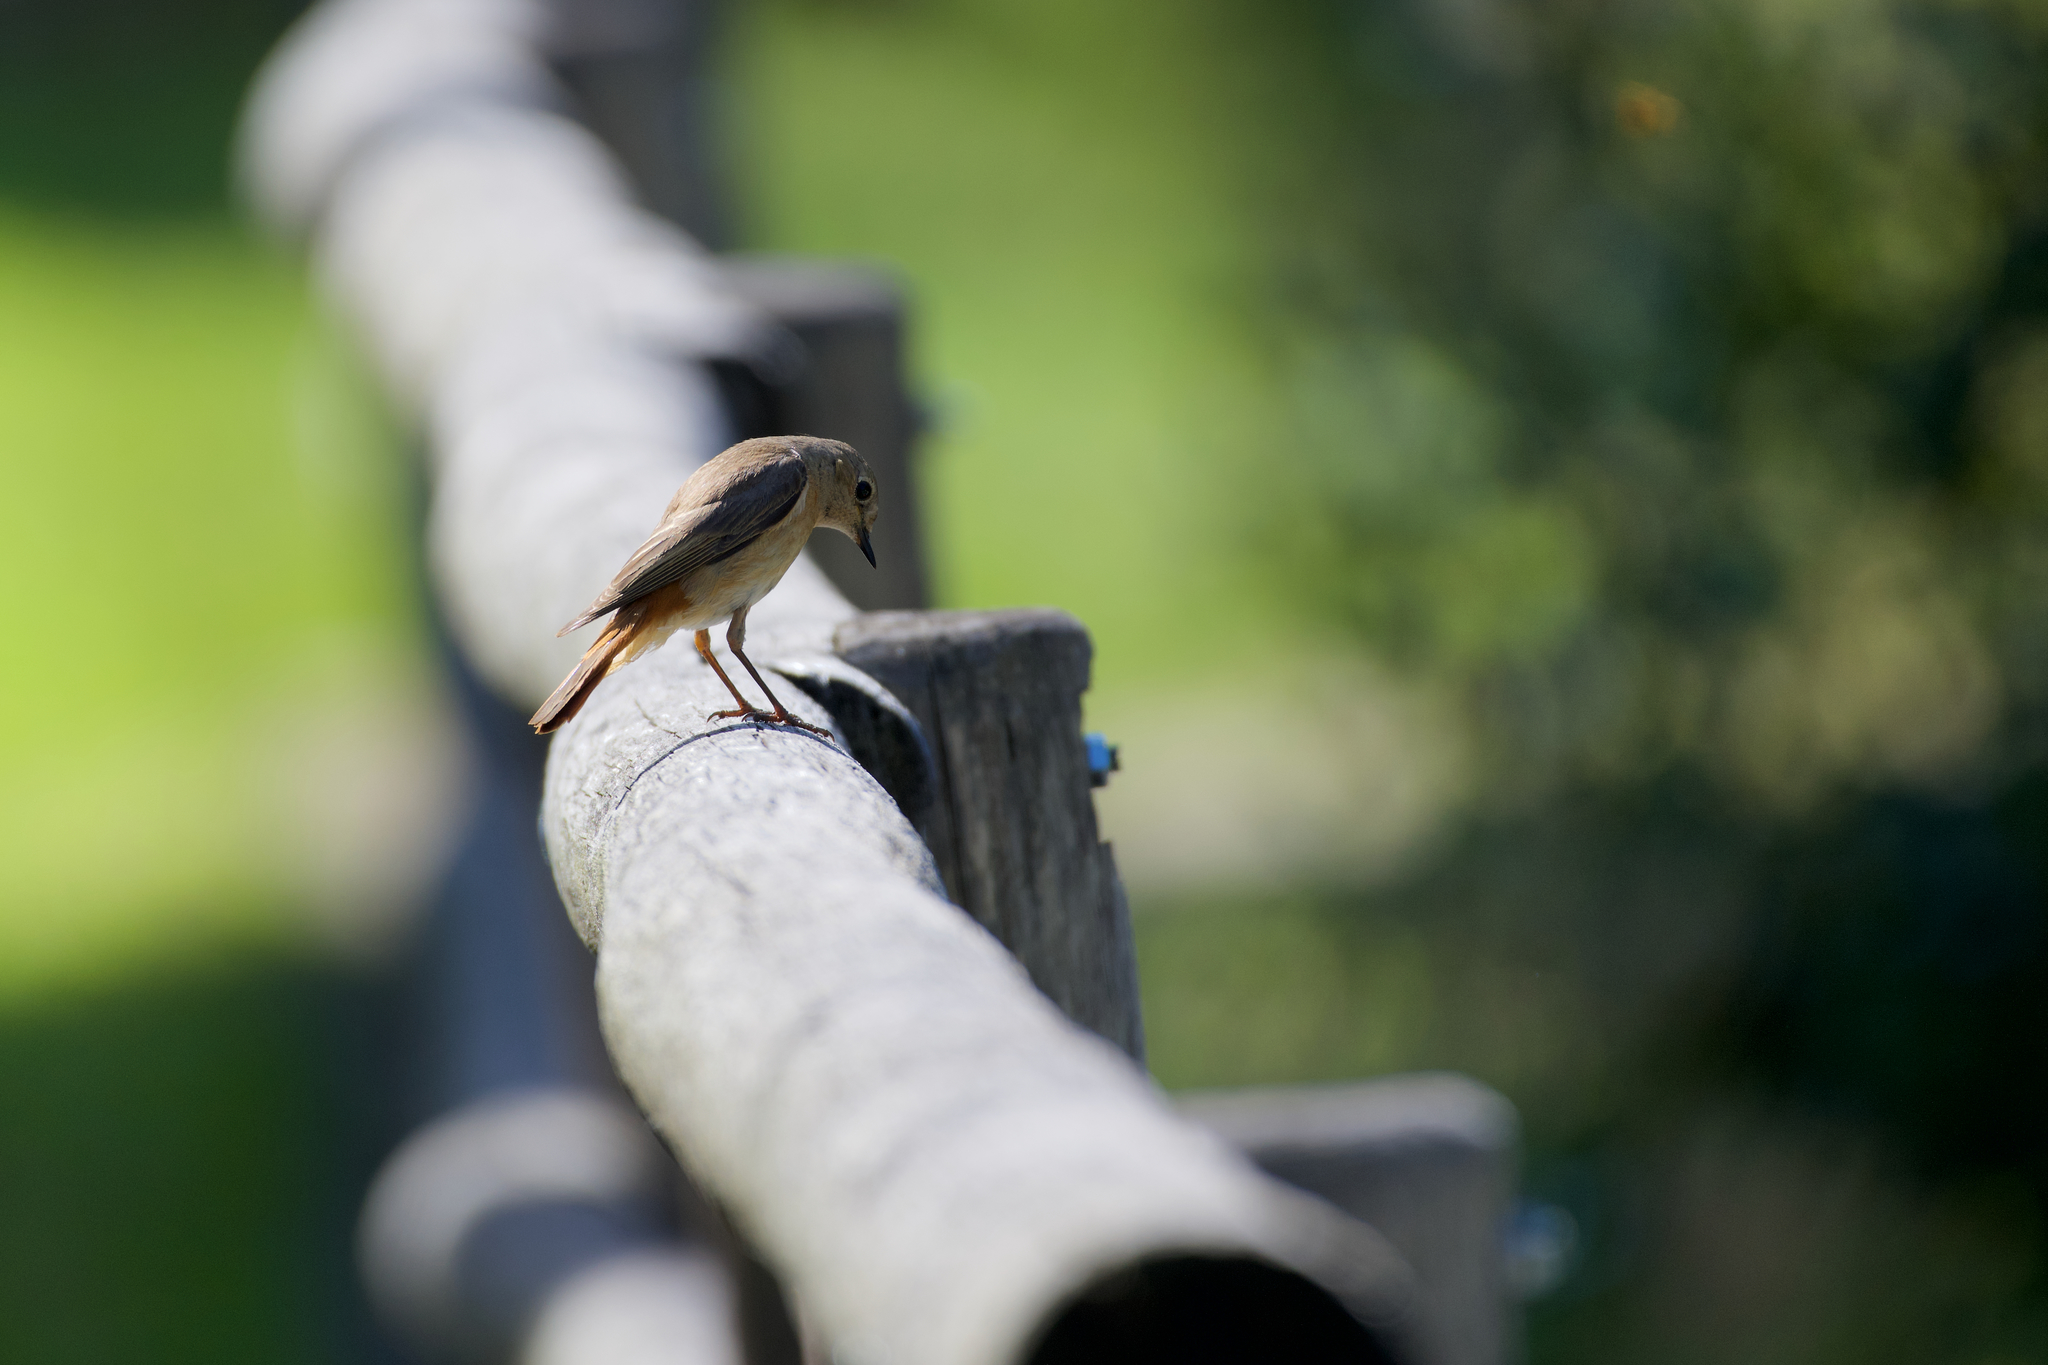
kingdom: Animalia
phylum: Chordata
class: Aves
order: Passeriformes
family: Muscicapidae
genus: Phoenicurus
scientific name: Phoenicurus phoenicurus
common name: Common redstart
